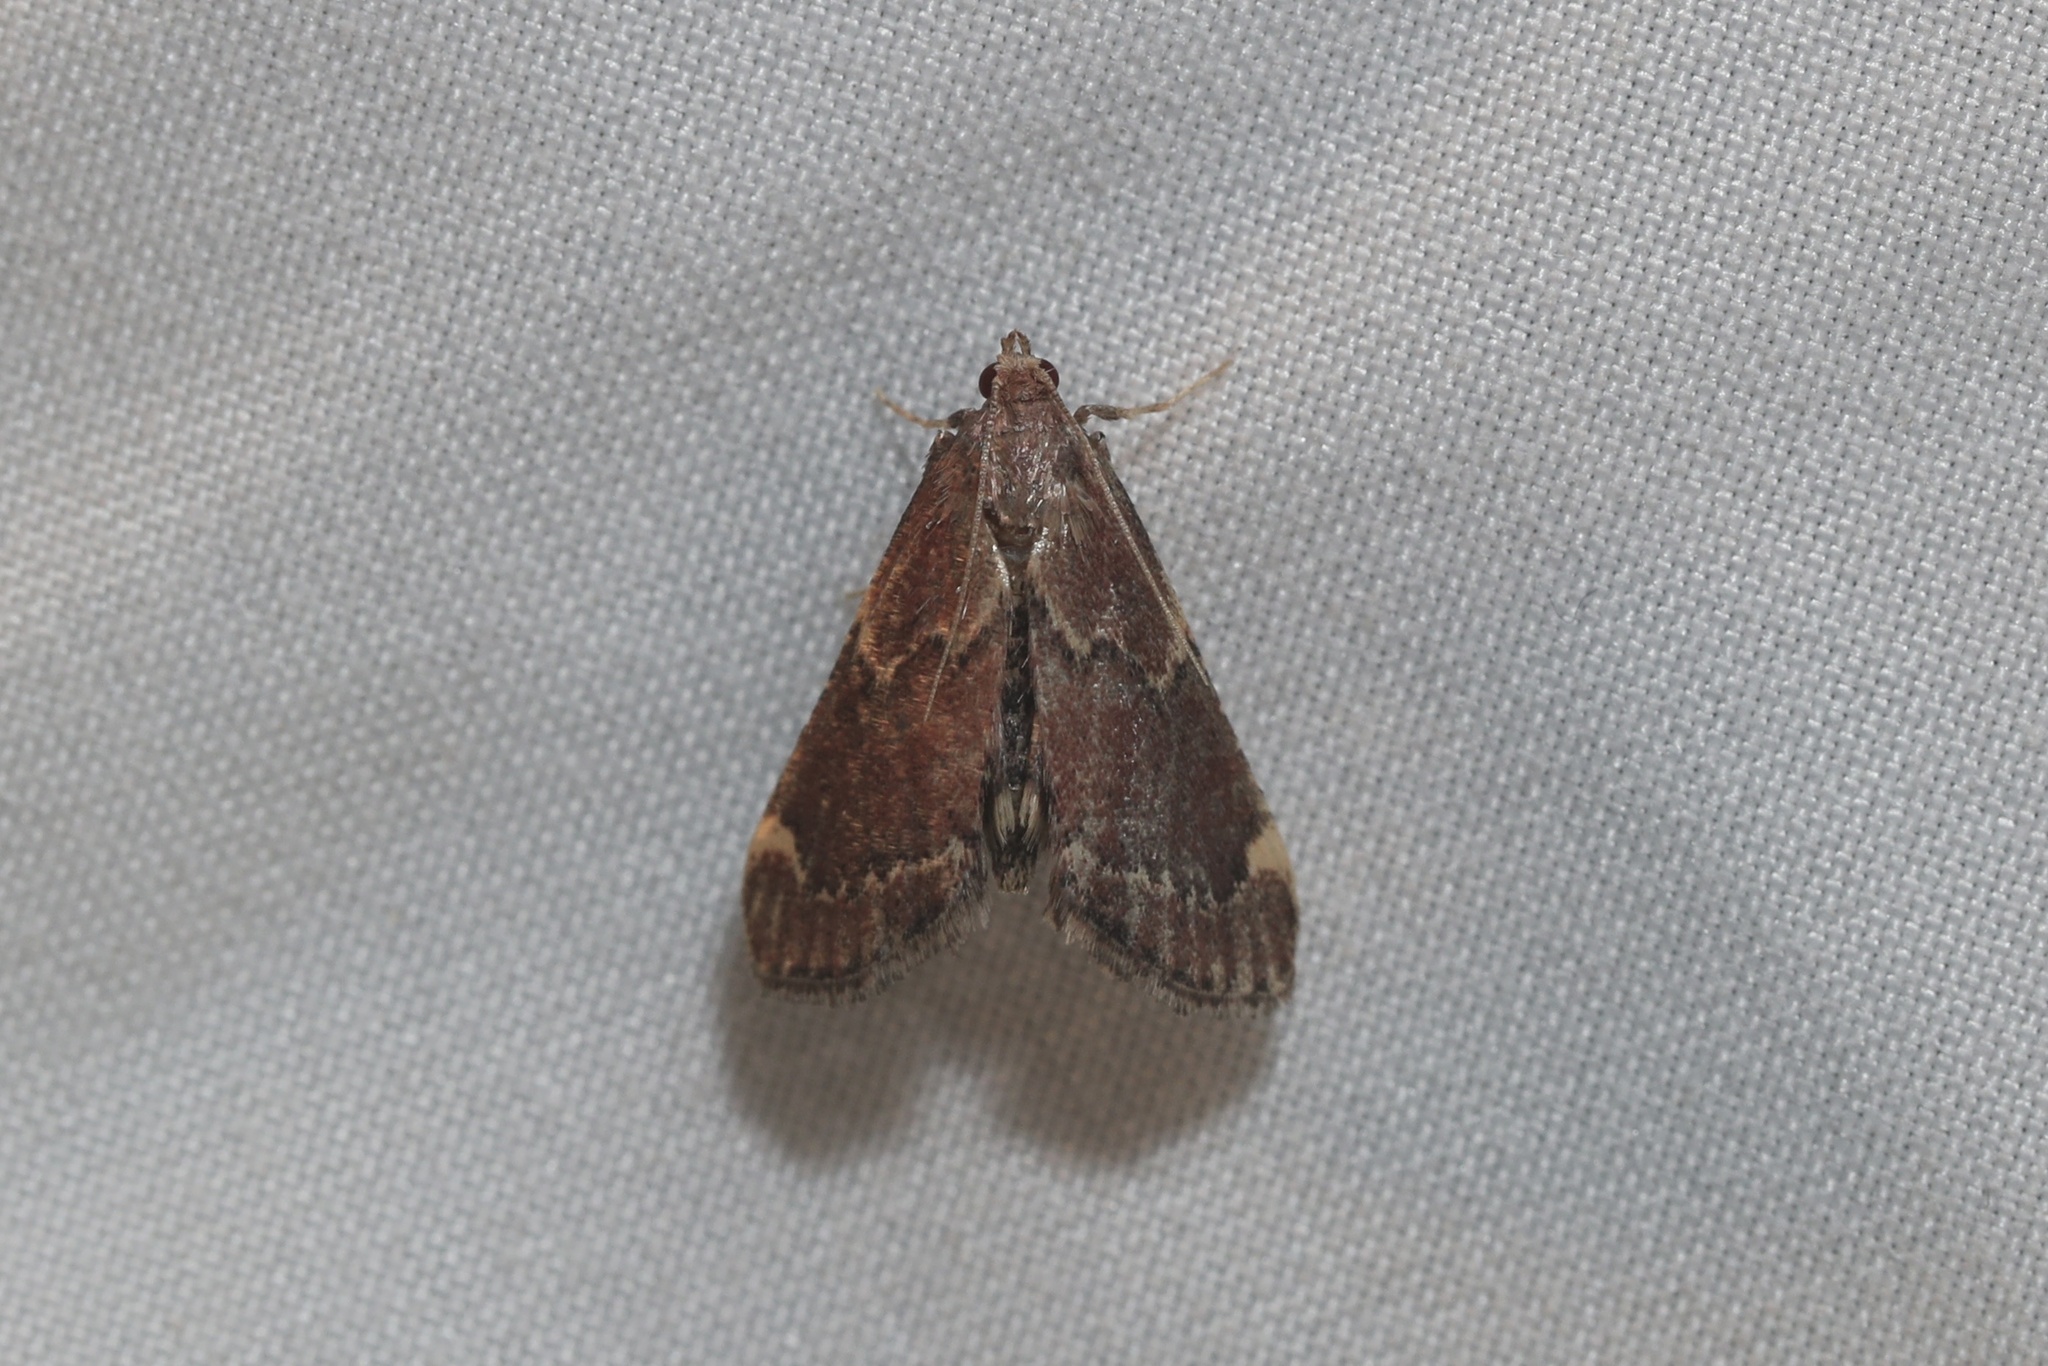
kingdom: Animalia
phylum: Arthropoda
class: Insecta
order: Lepidoptera
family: Pyralidae
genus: Hypsopygia
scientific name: Hypsopygia intermedialis
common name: Red-shawled moth
